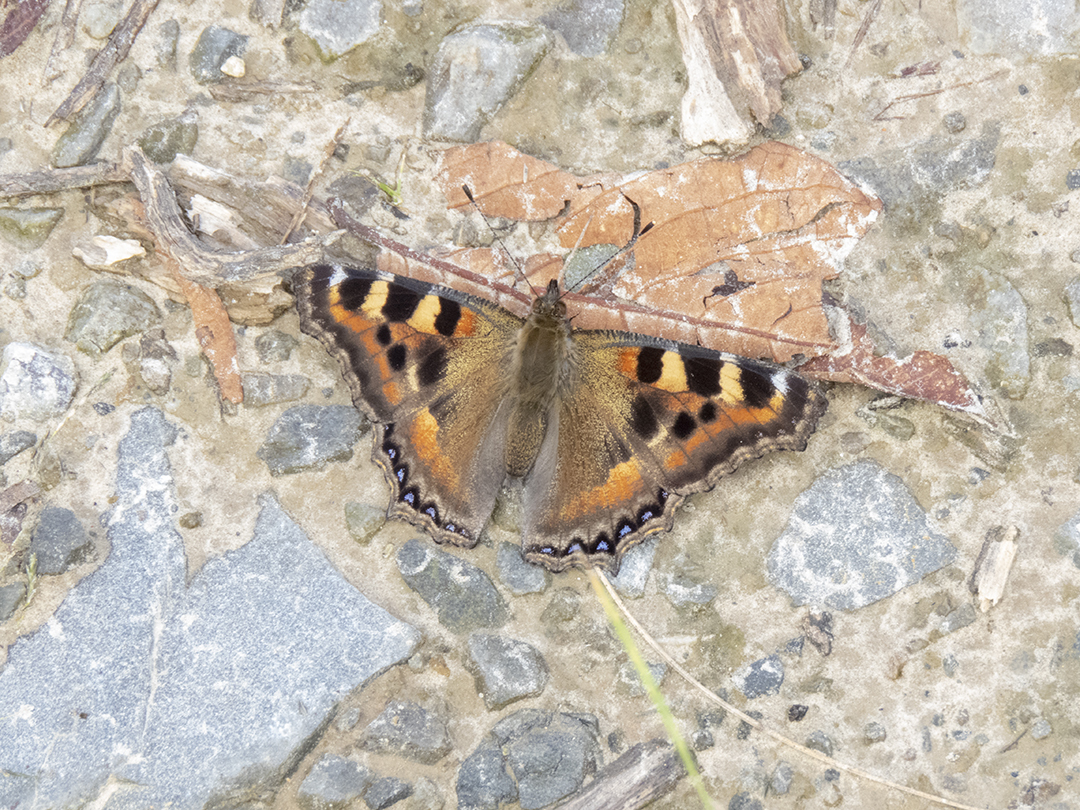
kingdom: Animalia
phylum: Arthropoda
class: Insecta
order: Lepidoptera
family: Nymphalidae
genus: Aglais
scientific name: Aglais caschmirensis
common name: Indian tortoiseshell
